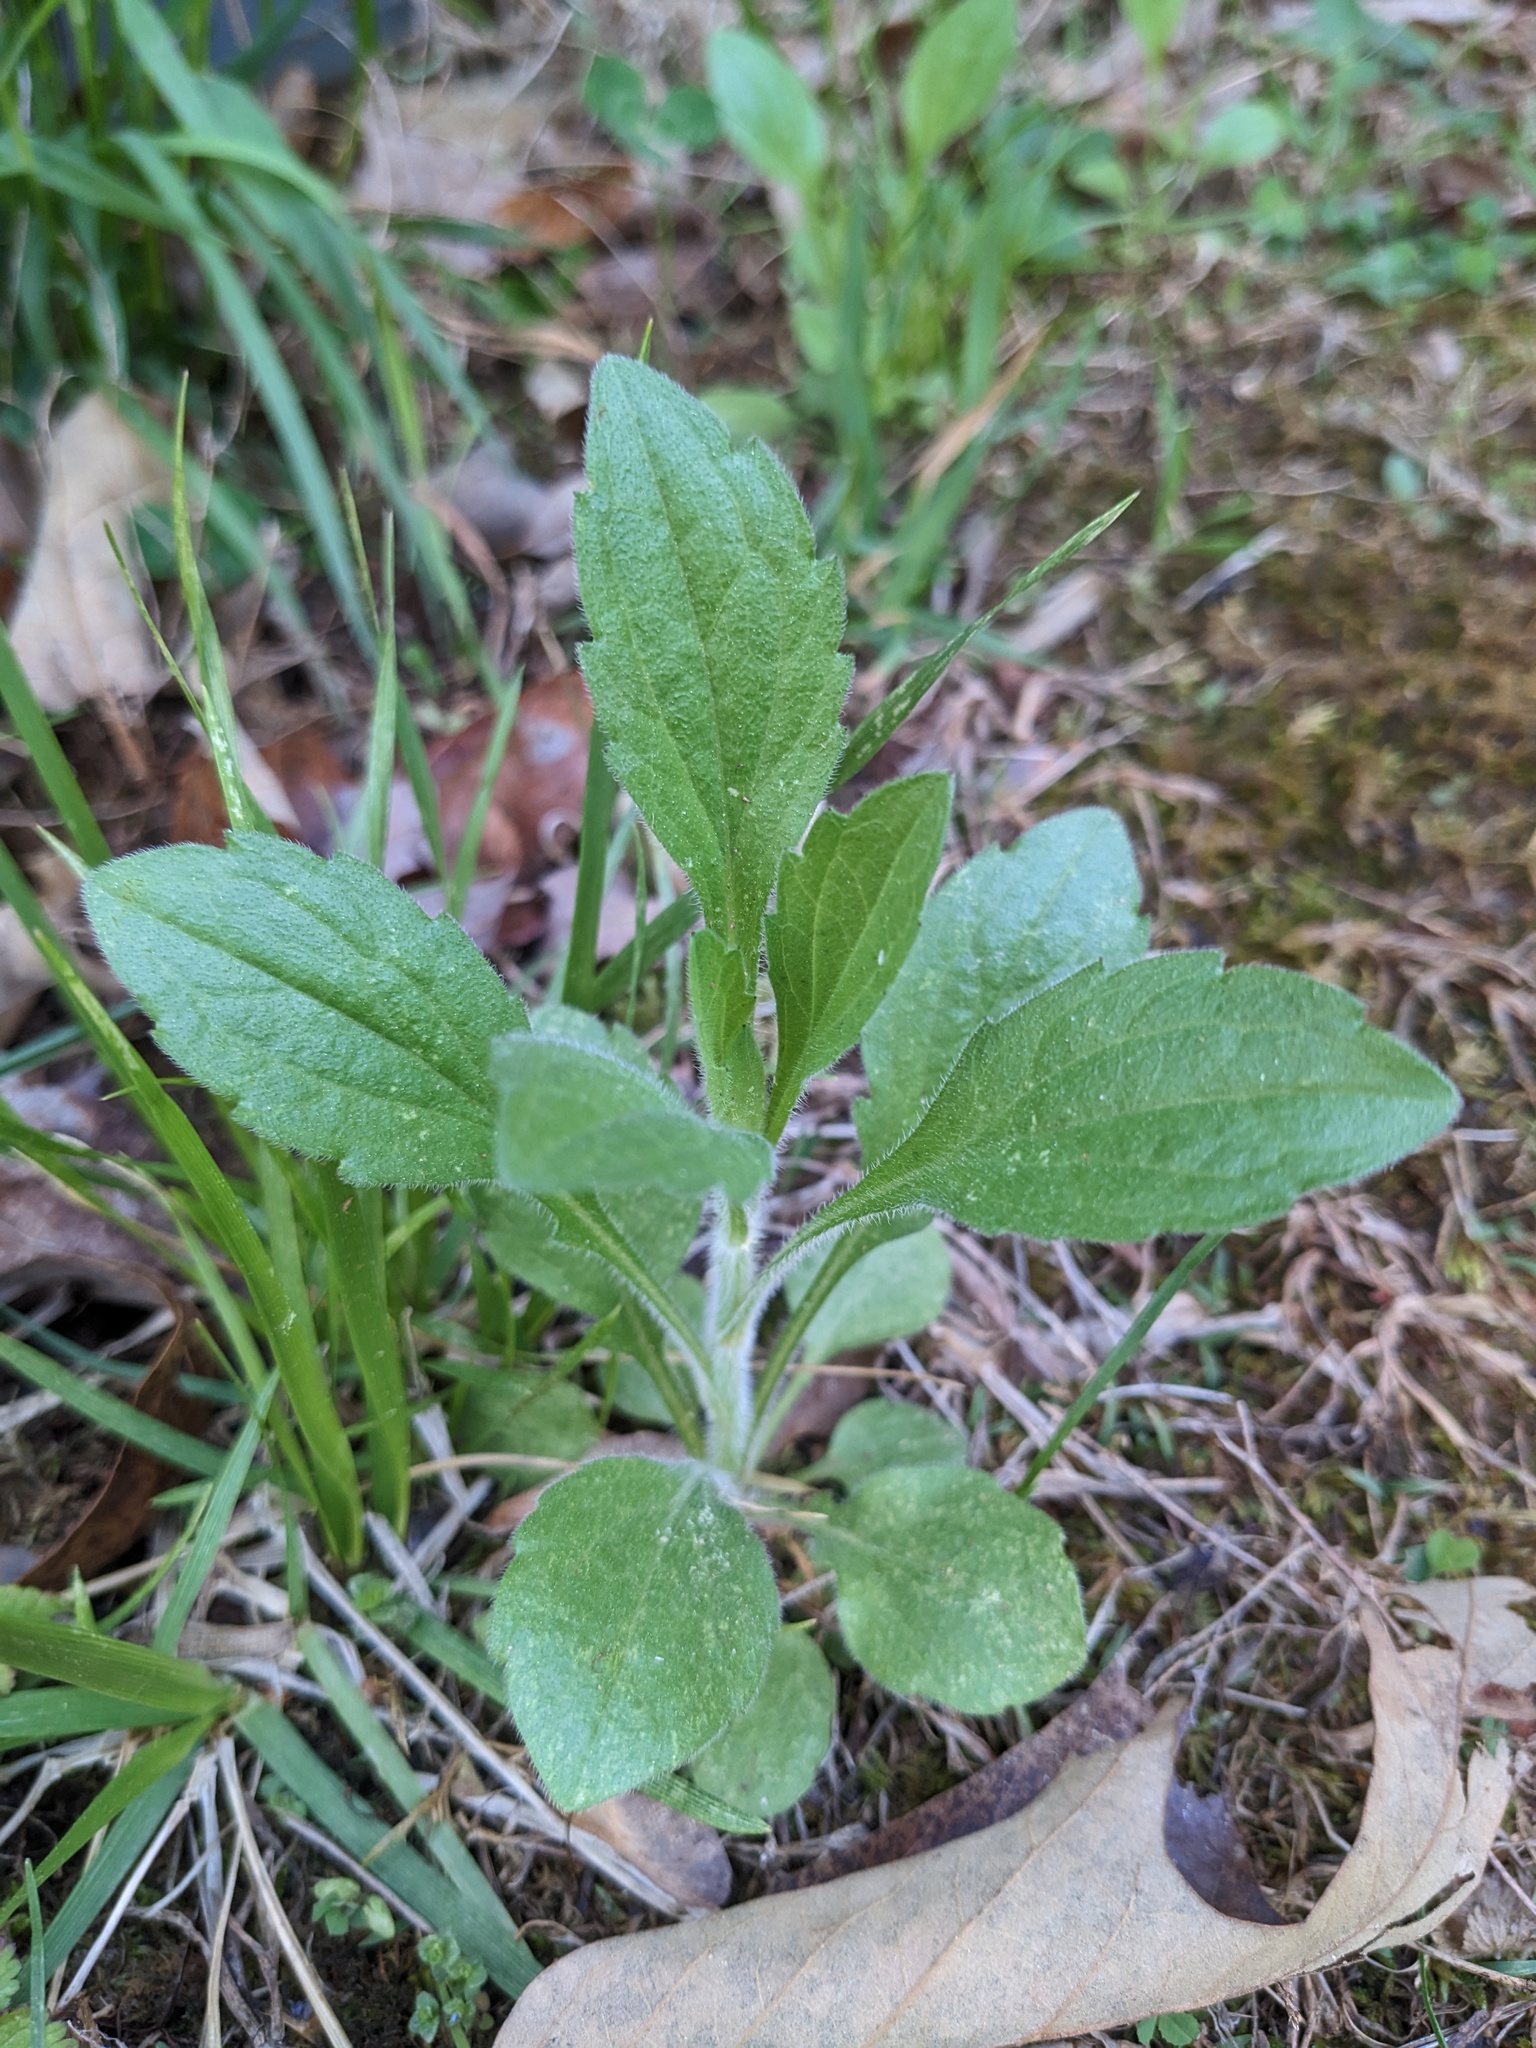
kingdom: Plantae
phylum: Tracheophyta
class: Magnoliopsida
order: Asterales
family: Asteraceae
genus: Erigeron
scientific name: Erigeron annuus
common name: Tall fleabane
